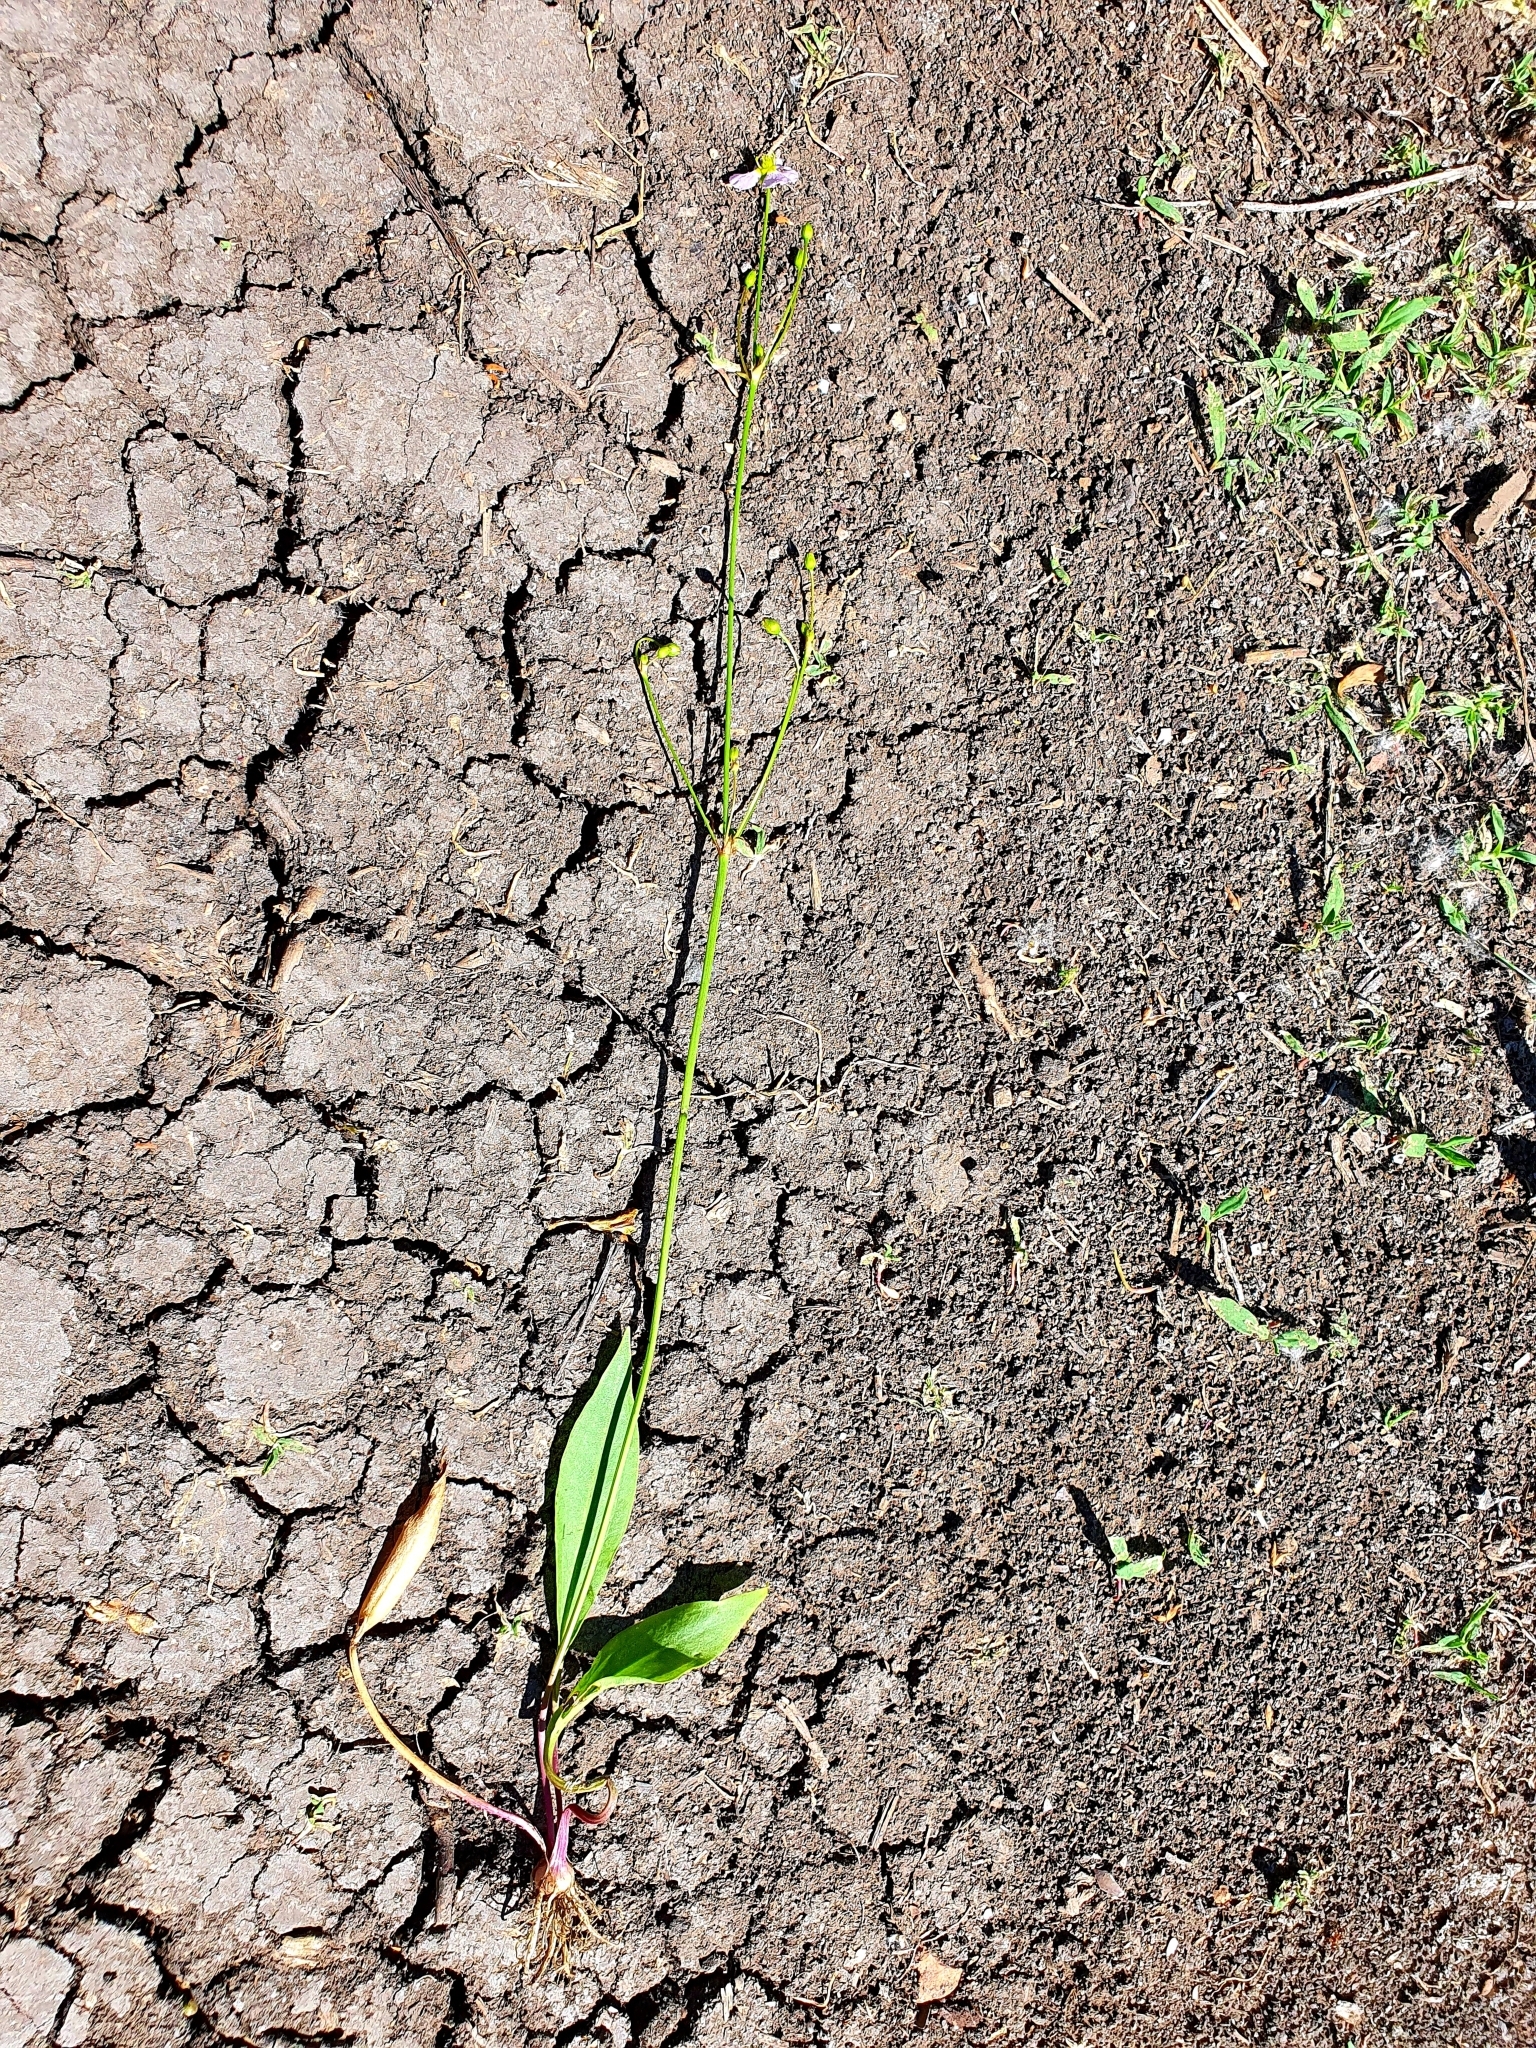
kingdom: Plantae
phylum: Tracheophyta
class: Liliopsida
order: Alismatales
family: Alismataceae
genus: Alisma
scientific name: Alisma lanceolatum
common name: Narrow-leaved water-plantain
